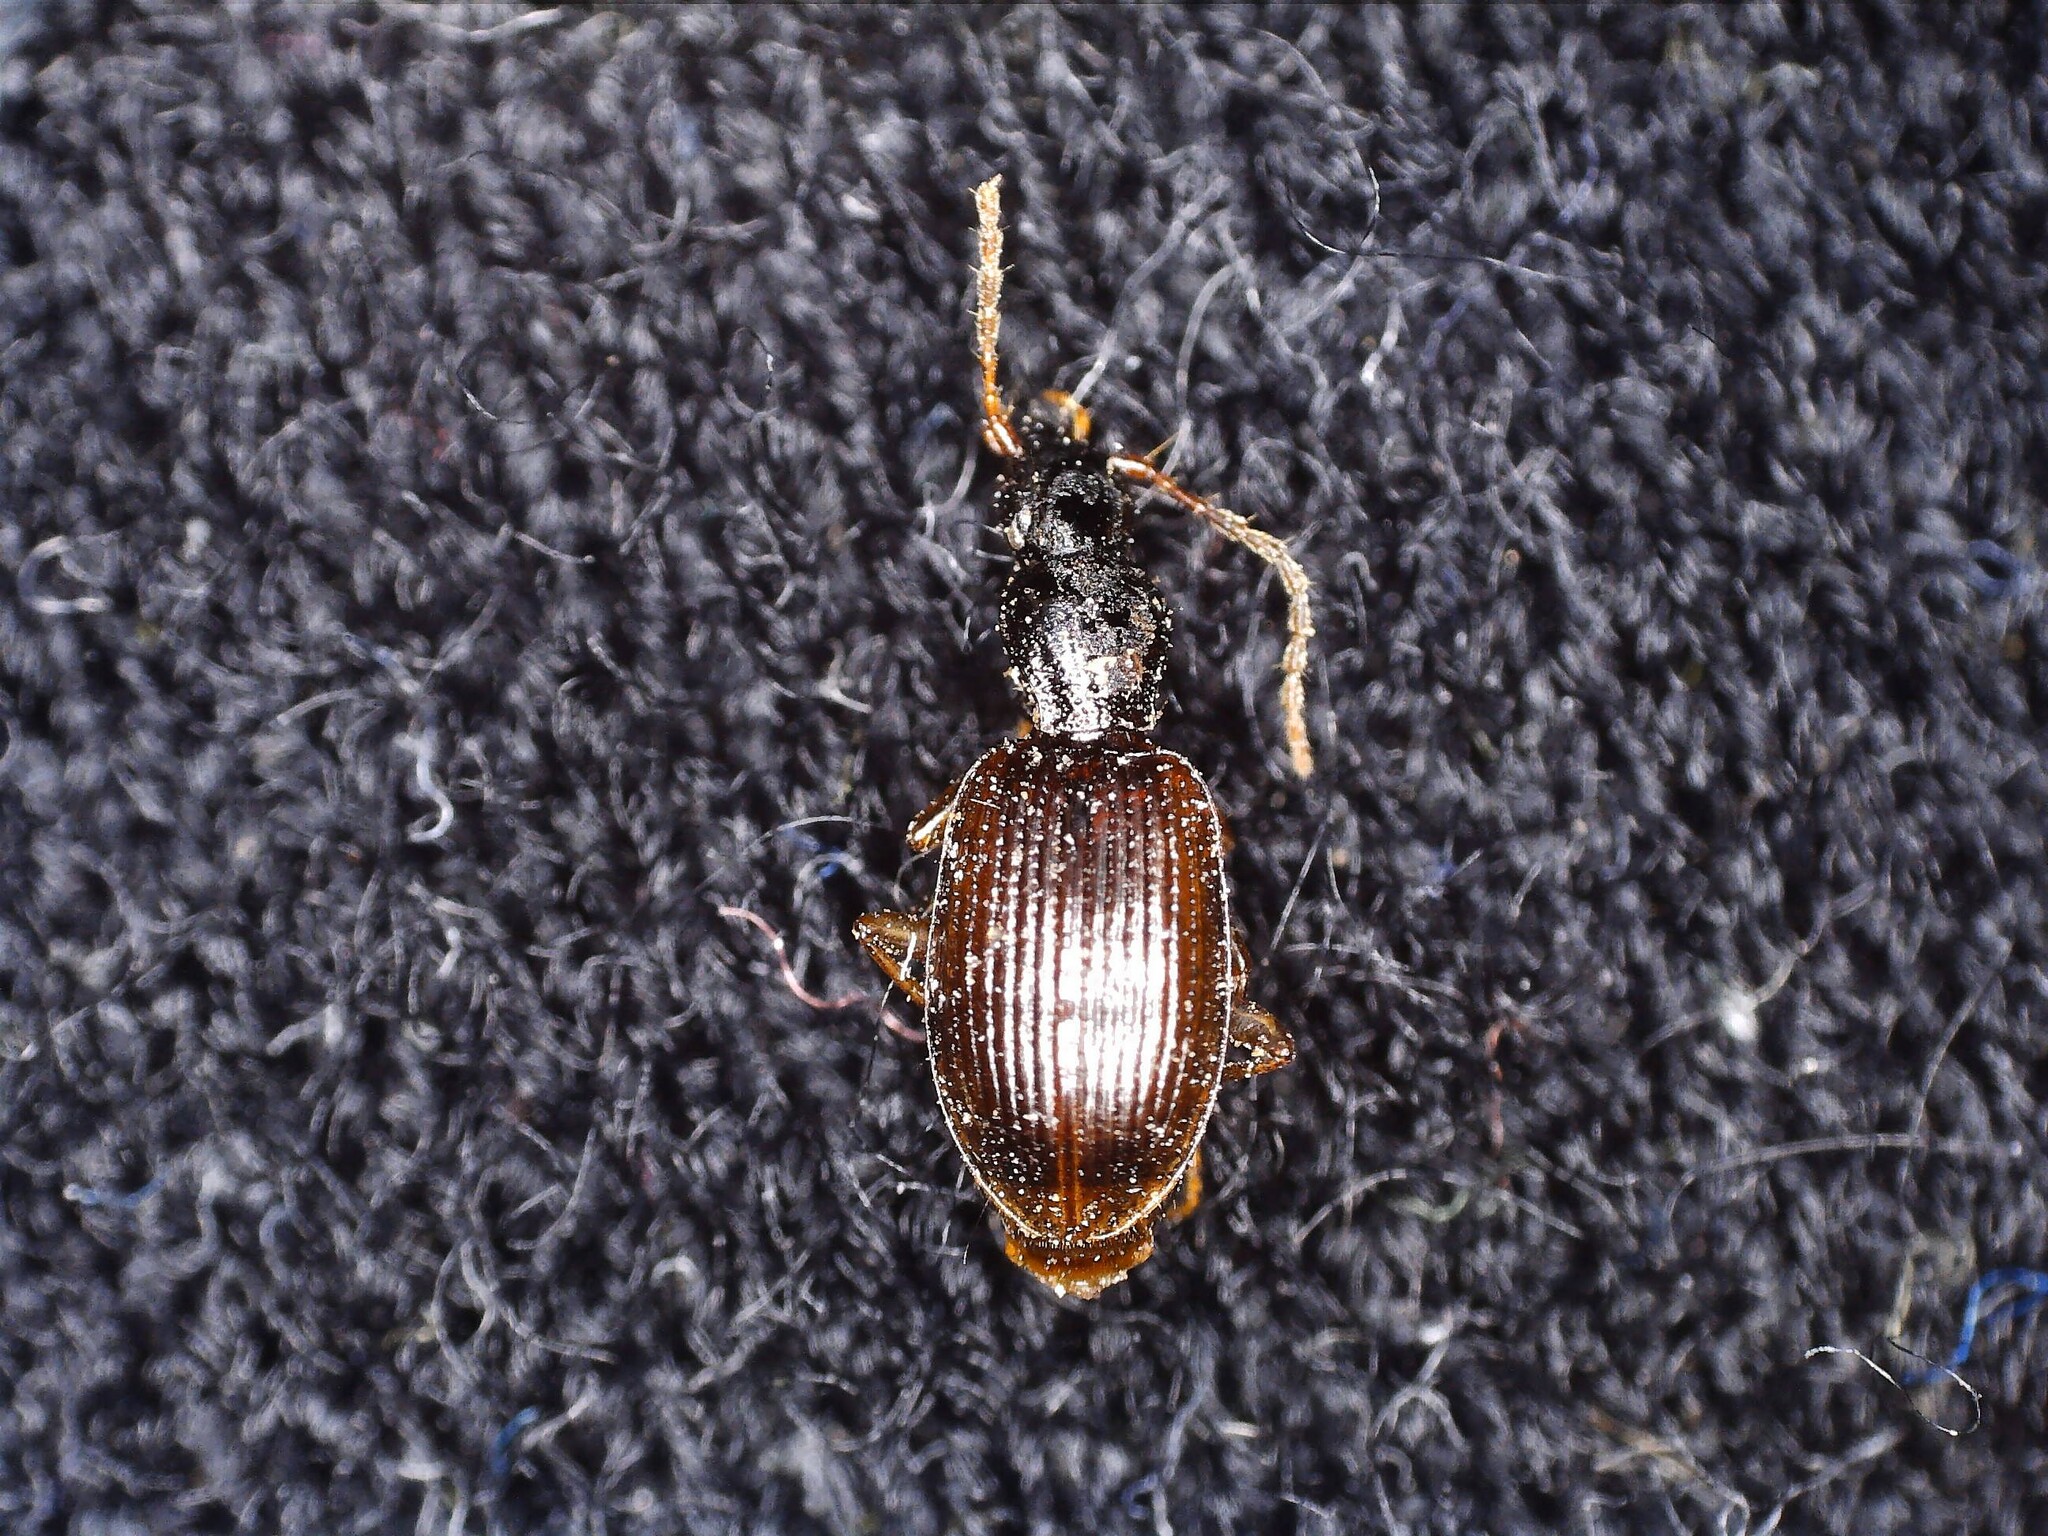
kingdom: Animalia
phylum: Arthropoda
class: Insecta
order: Coleoptera
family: Carabidae
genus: Oxypselaphus
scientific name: Oxypselaphus obscurus
